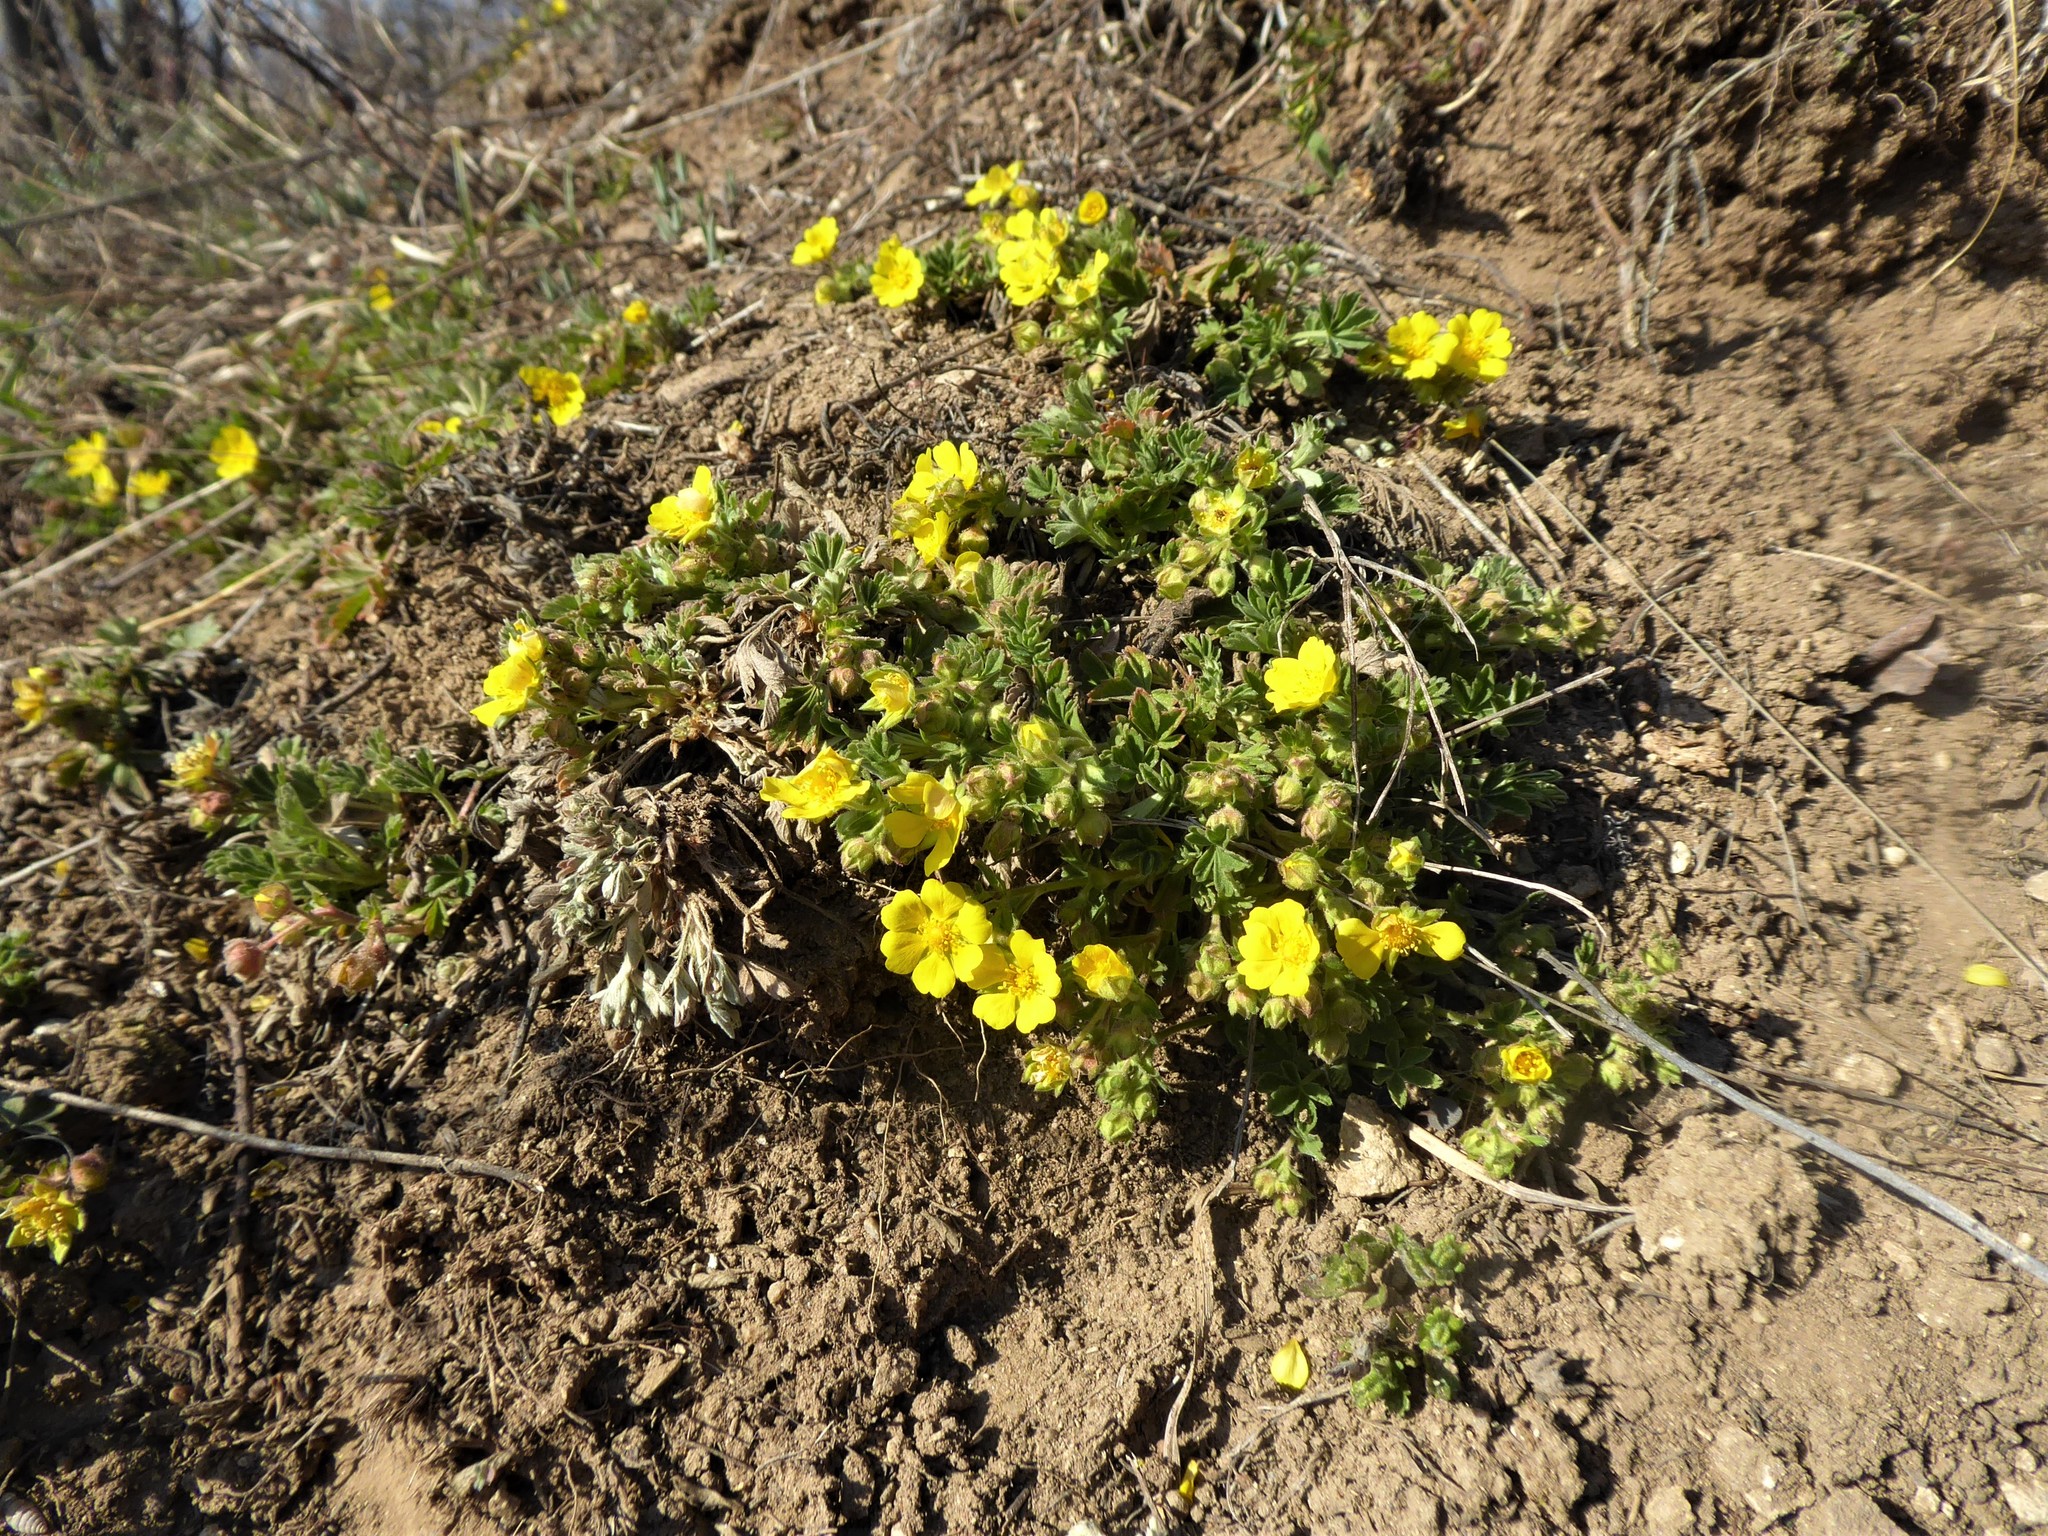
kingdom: Plantae
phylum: Tracheophyta
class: Magnoliopsida
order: Rosales
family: Rosaceae
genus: Potentilla
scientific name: Potentilla incana
